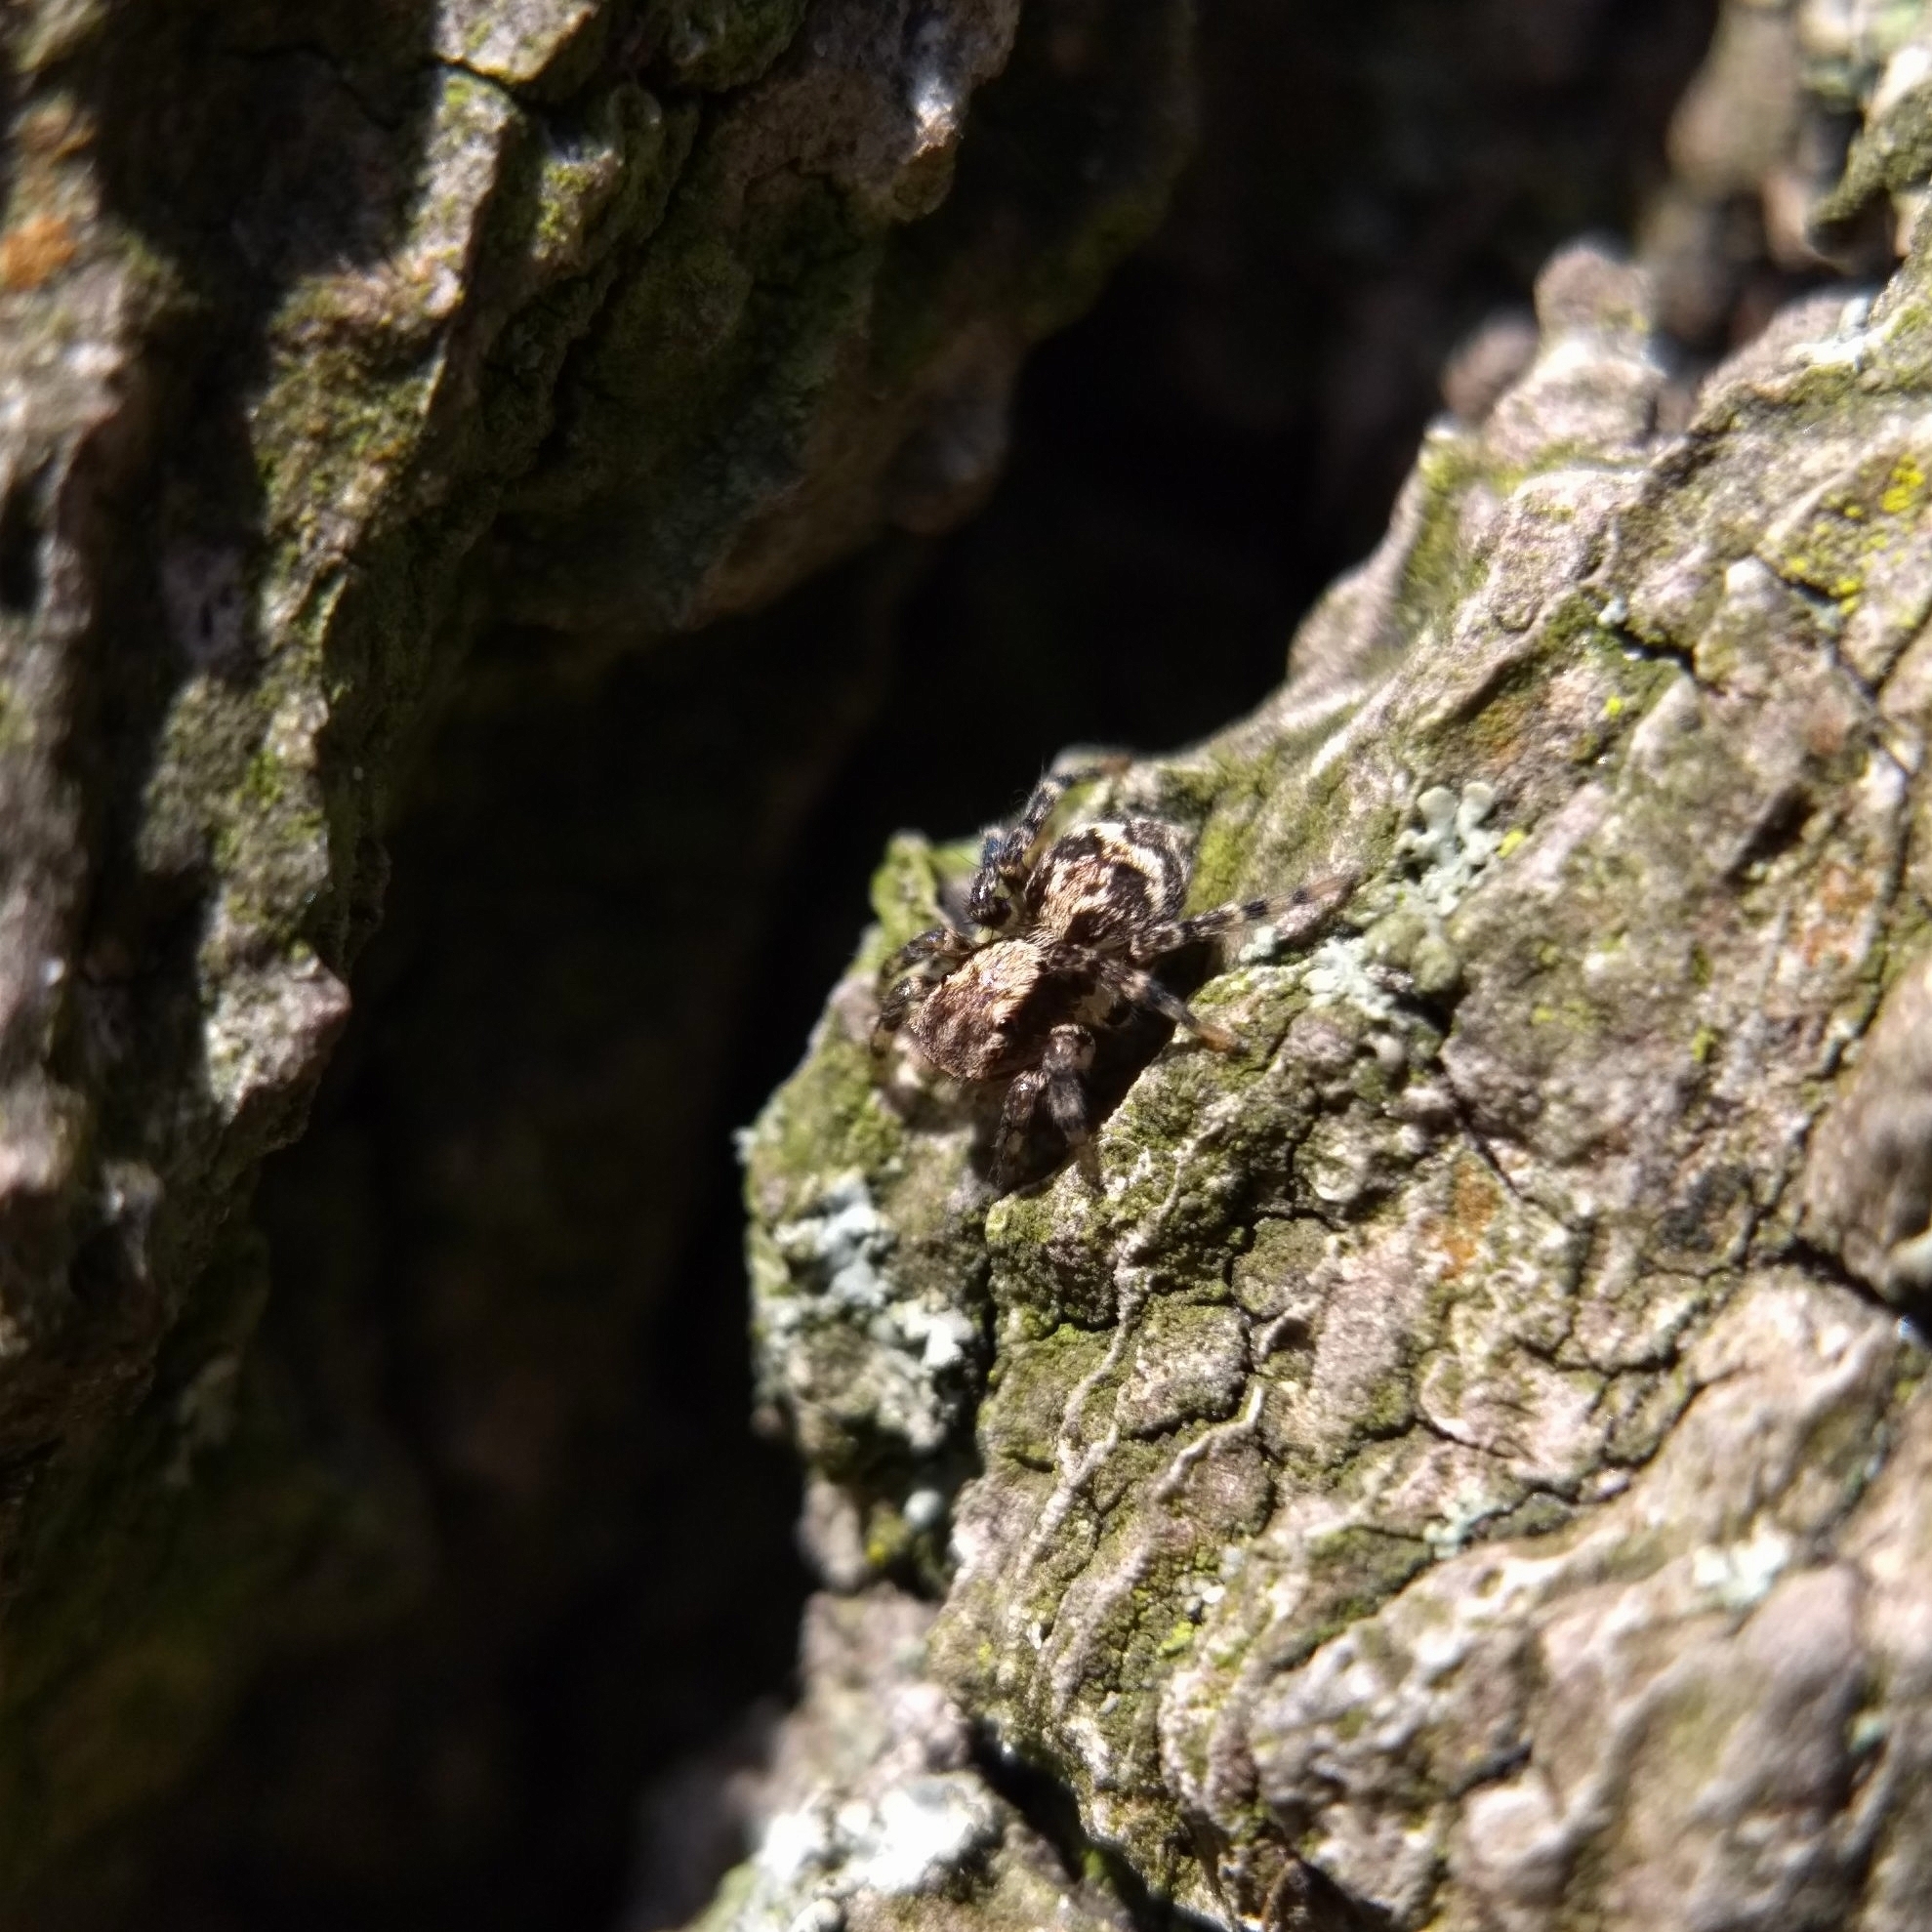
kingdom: Animalia
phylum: Arthropoda
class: Arachnida
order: Araneae
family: Salticidae
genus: Naphrys
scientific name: Naphrys pulex
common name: Flea jumping spider
